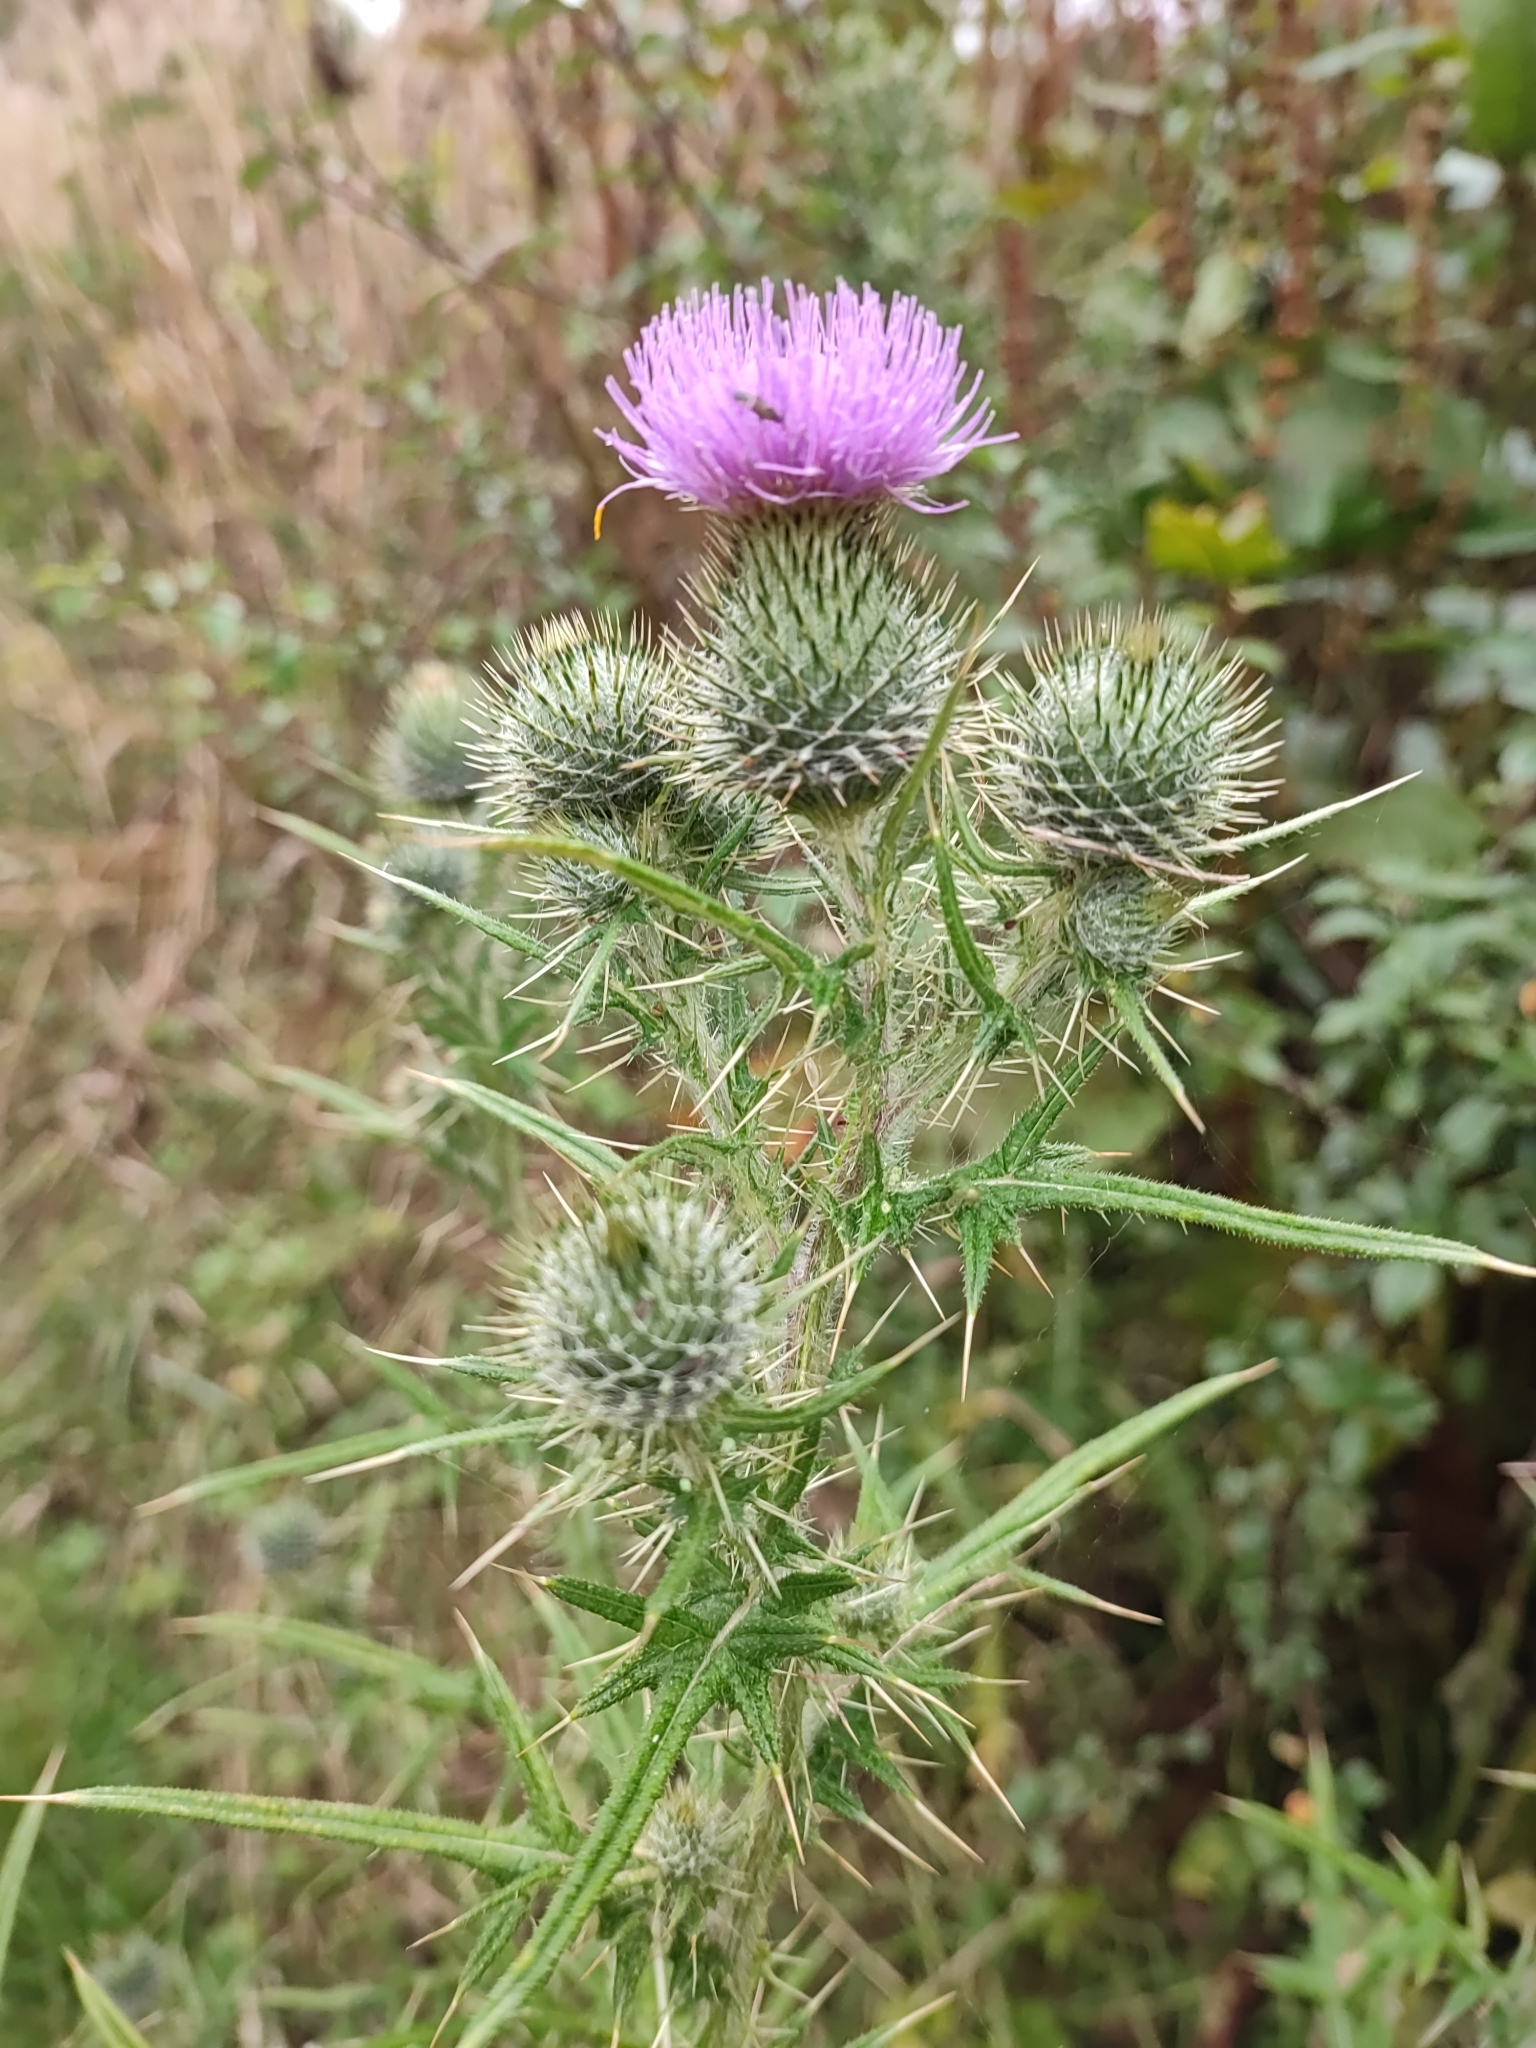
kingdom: Plantae
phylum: Tracheophyta
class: Magnoliopsida
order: Asterales
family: Asteraceae
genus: Cirsium
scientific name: Cirsium vulgare
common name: Bull thistle
